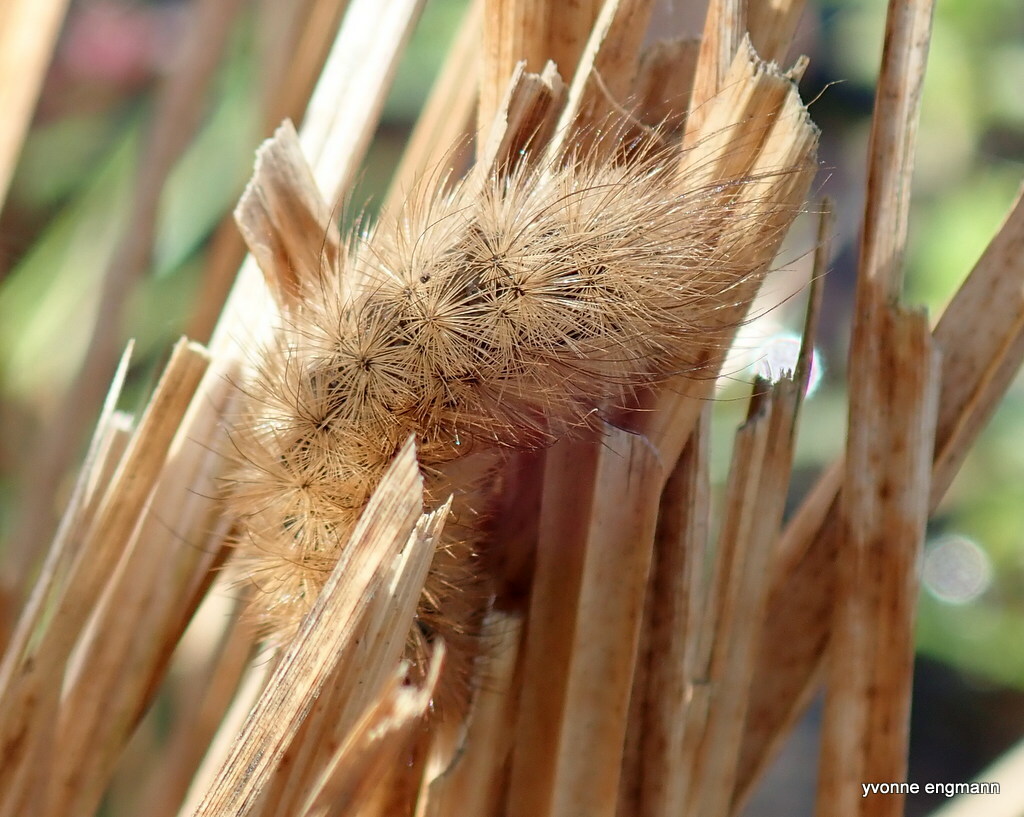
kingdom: Animalia
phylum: Arthropoda
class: Insecta
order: Lepidoptera
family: Erebidae
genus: Phragmatobia
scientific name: Phragmatobia fuliginosa
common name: Ruby tiger
